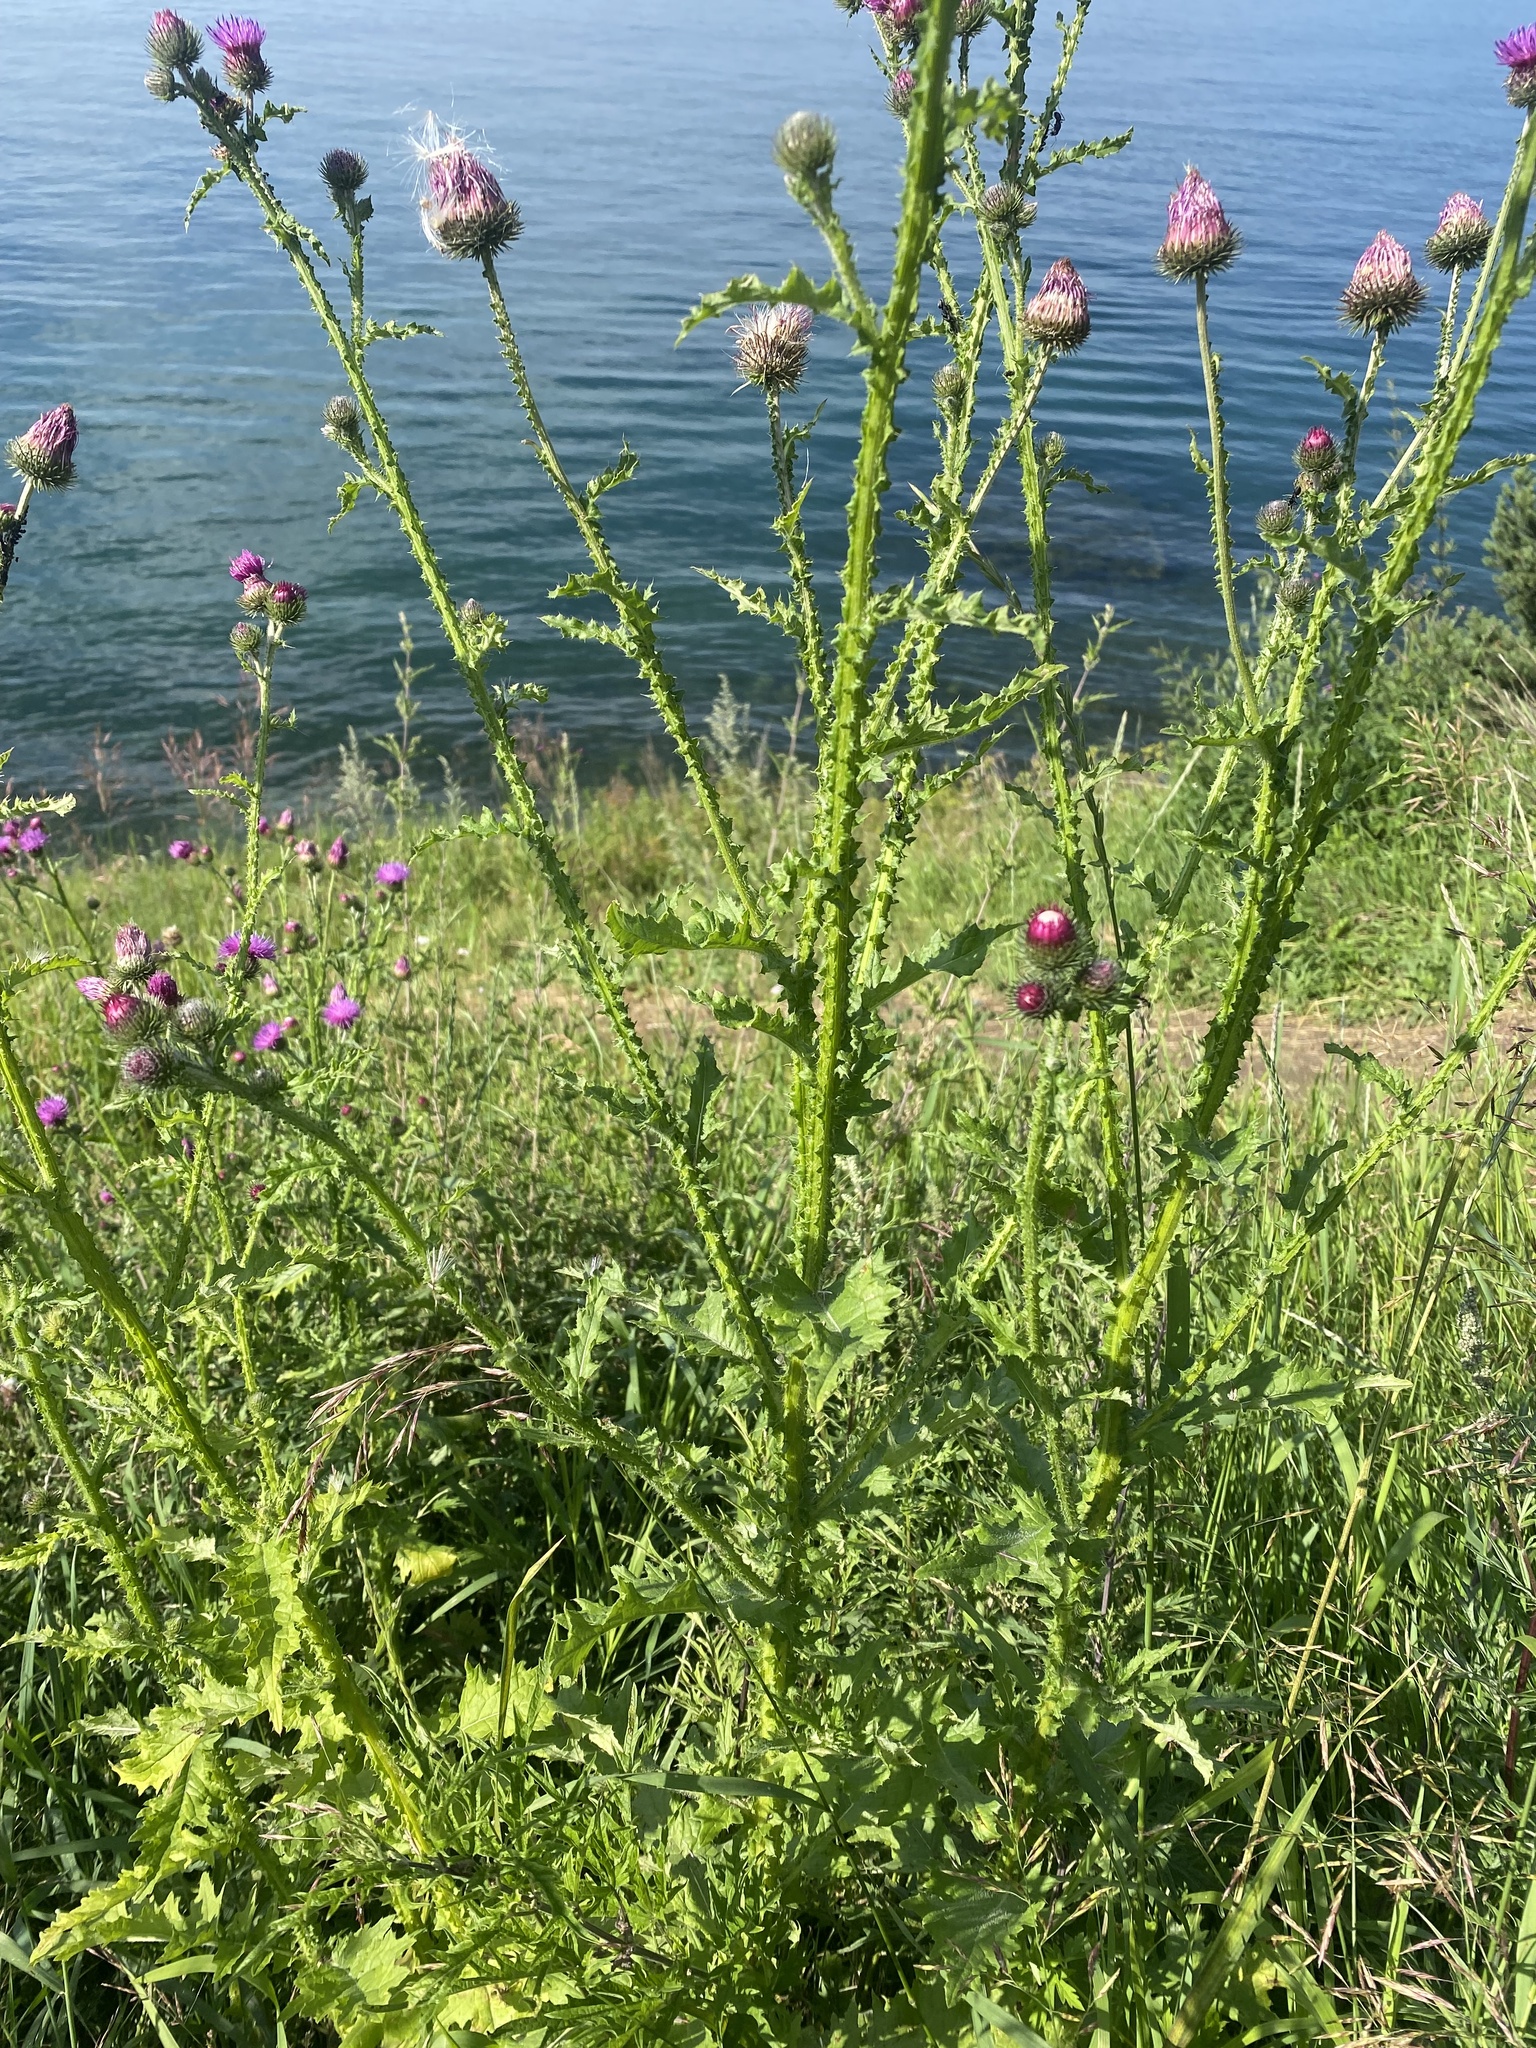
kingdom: Plantae
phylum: Tracheophyta
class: Magnoliopsida
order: Asterales
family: Asteraceae
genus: Carduus
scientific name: Carduus crispus
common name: Welted thistle
